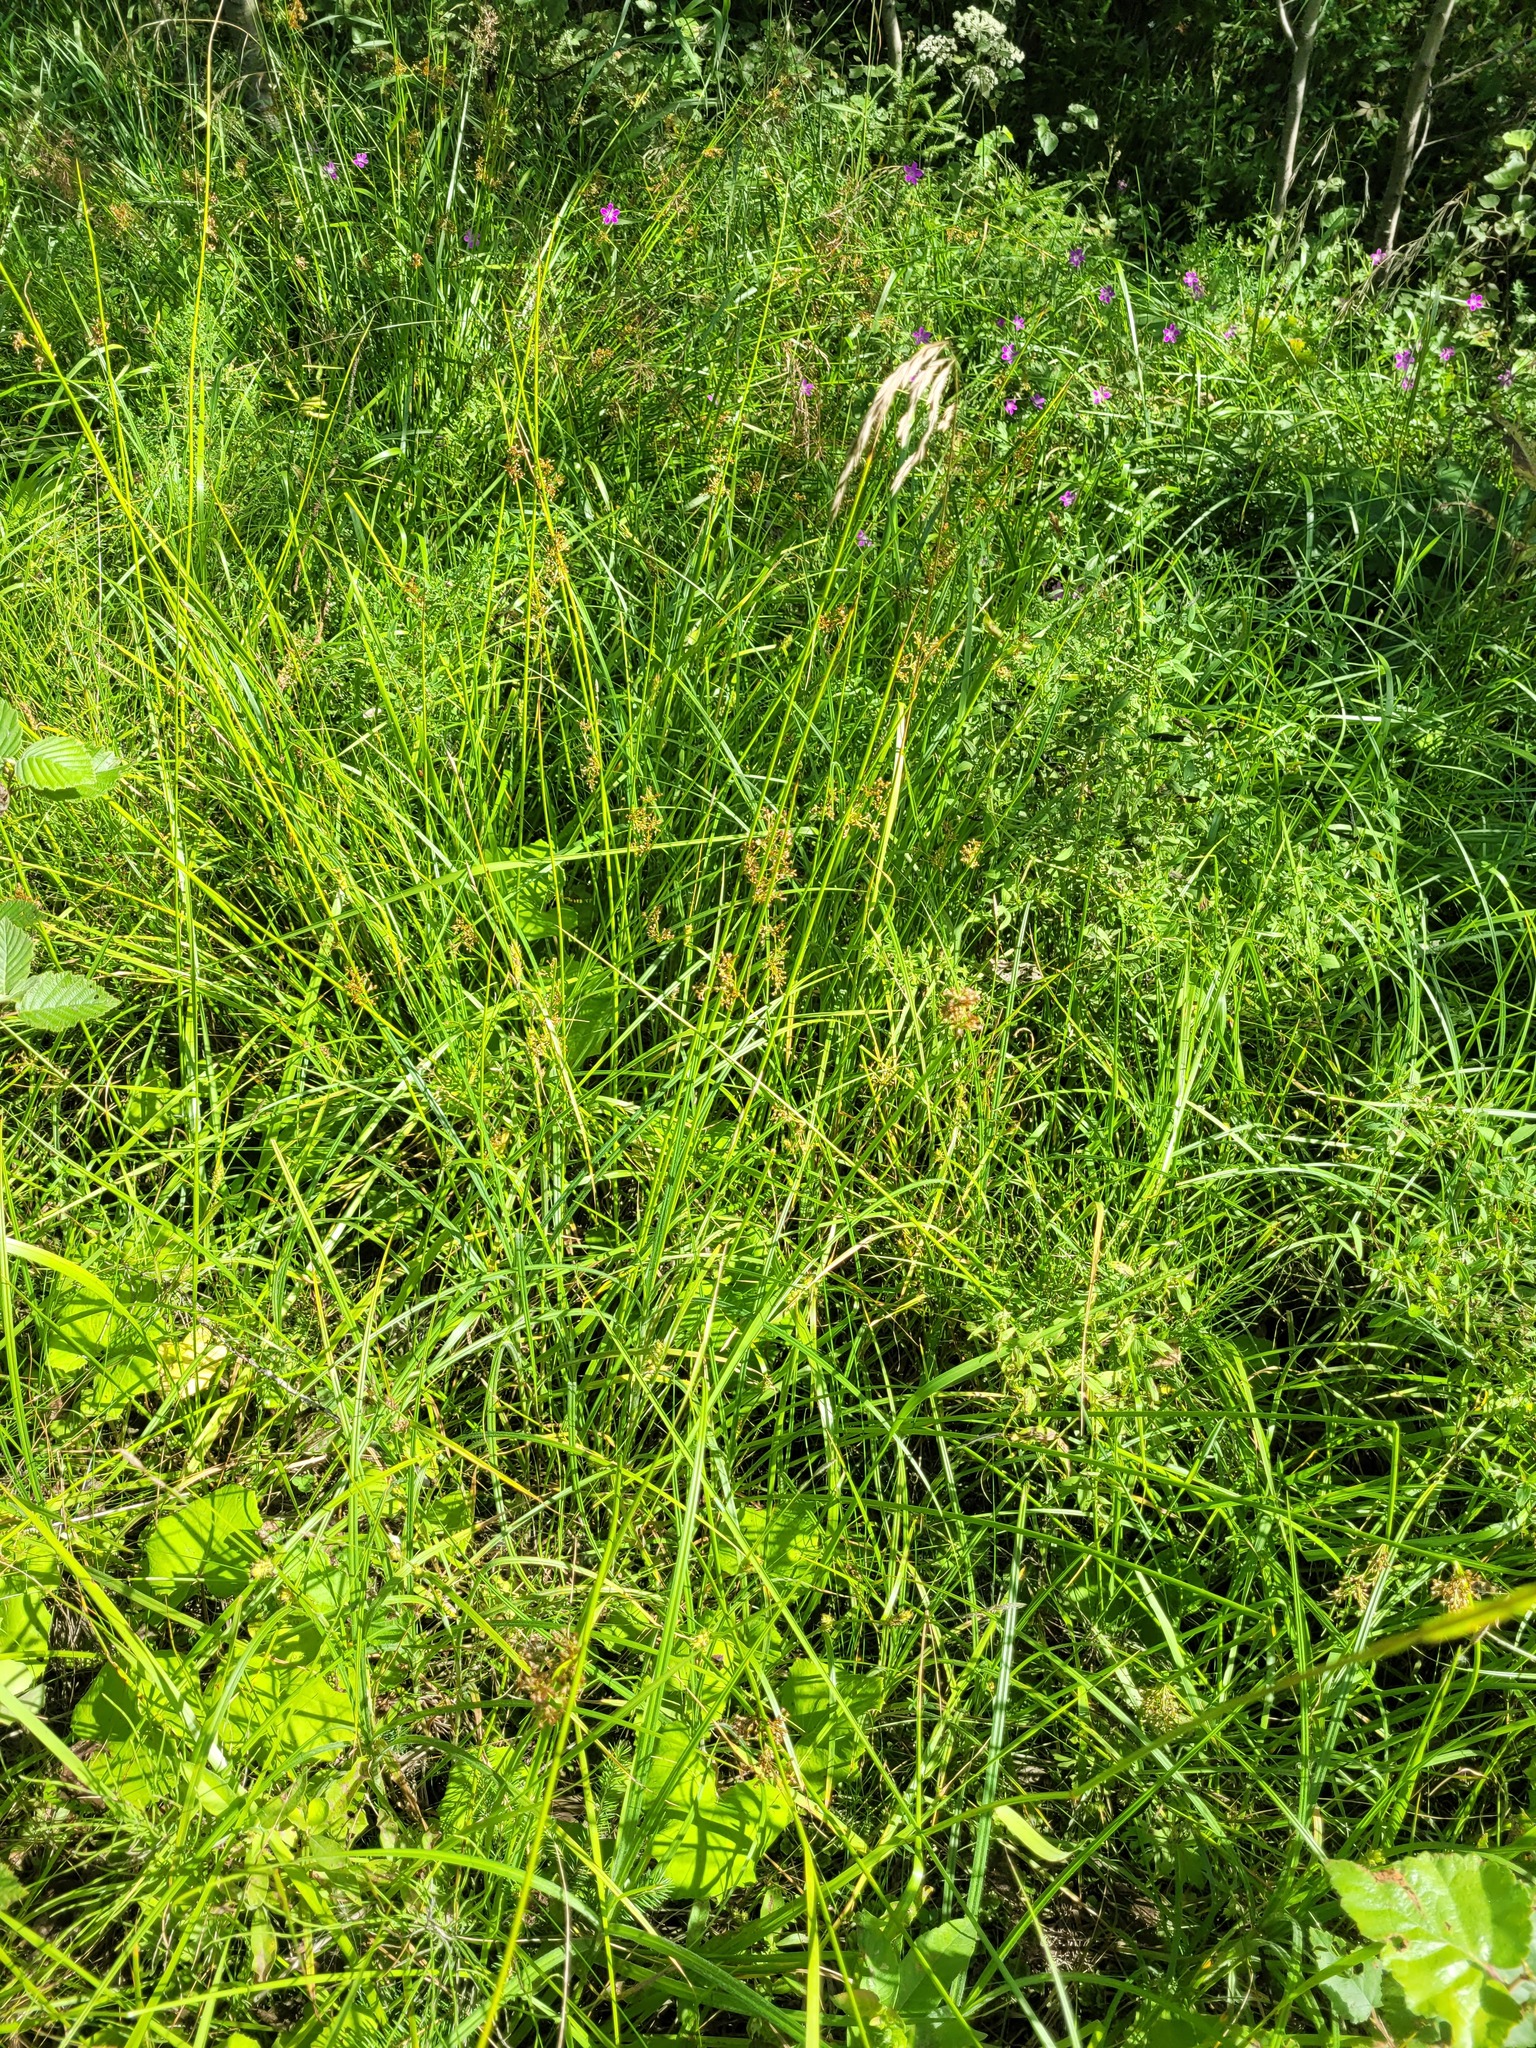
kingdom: Plantae
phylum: Tracheophyta
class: Liliopsida
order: Poales
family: Juncaceae
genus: Juncus
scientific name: Juncus effusus
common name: Soft rush
